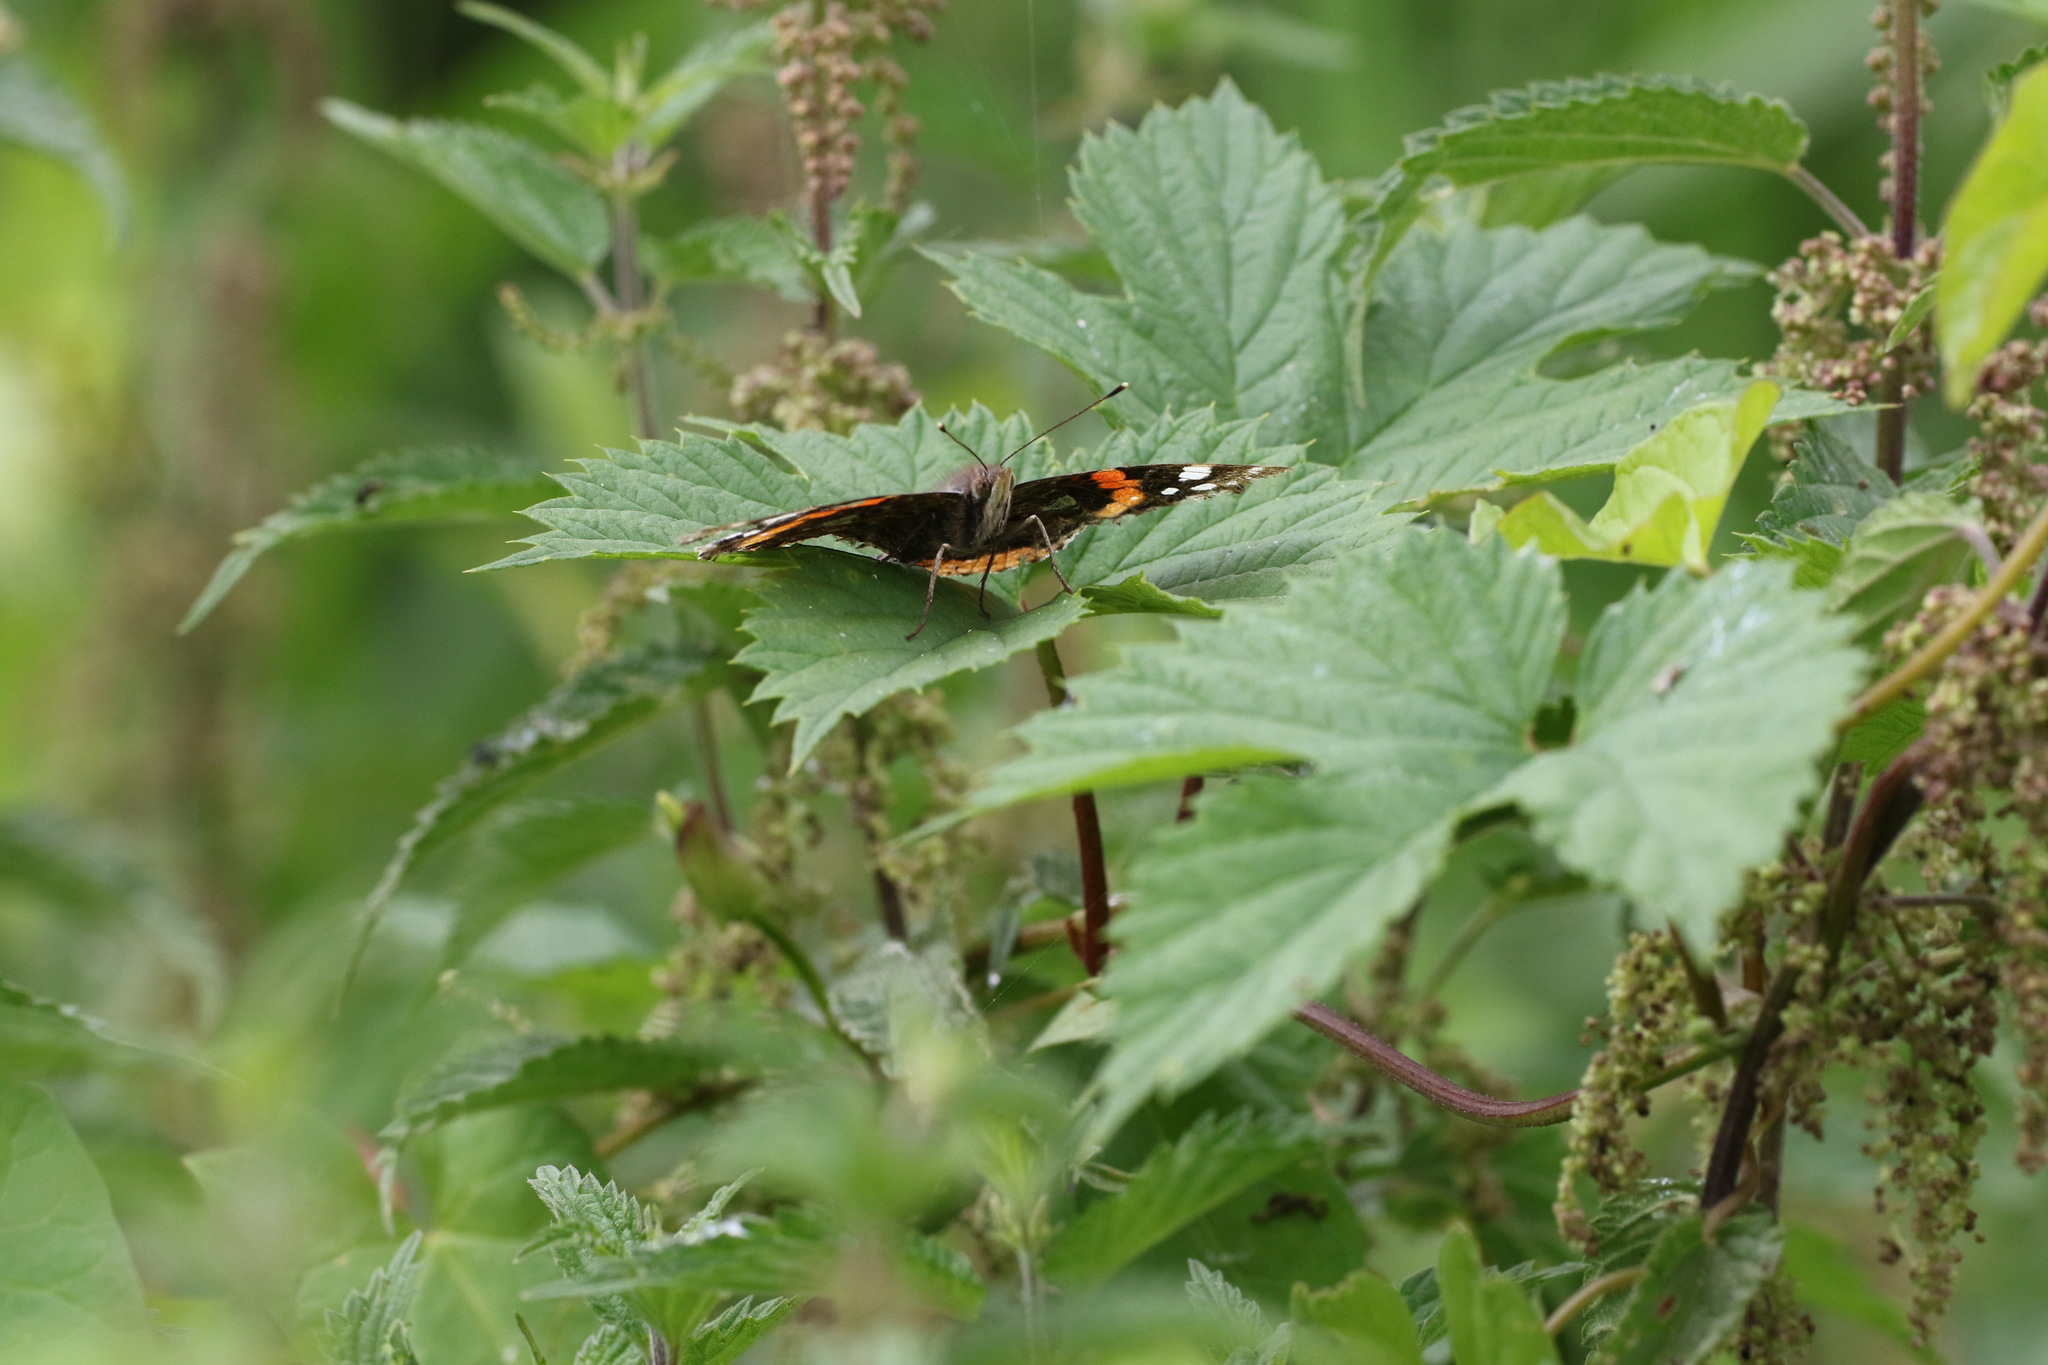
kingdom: Animalia
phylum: Arthropoda
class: Insecta
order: Lepidoptera
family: Nymphalidae
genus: Vanessa
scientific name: Vanessa atalanta
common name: Red admiral
